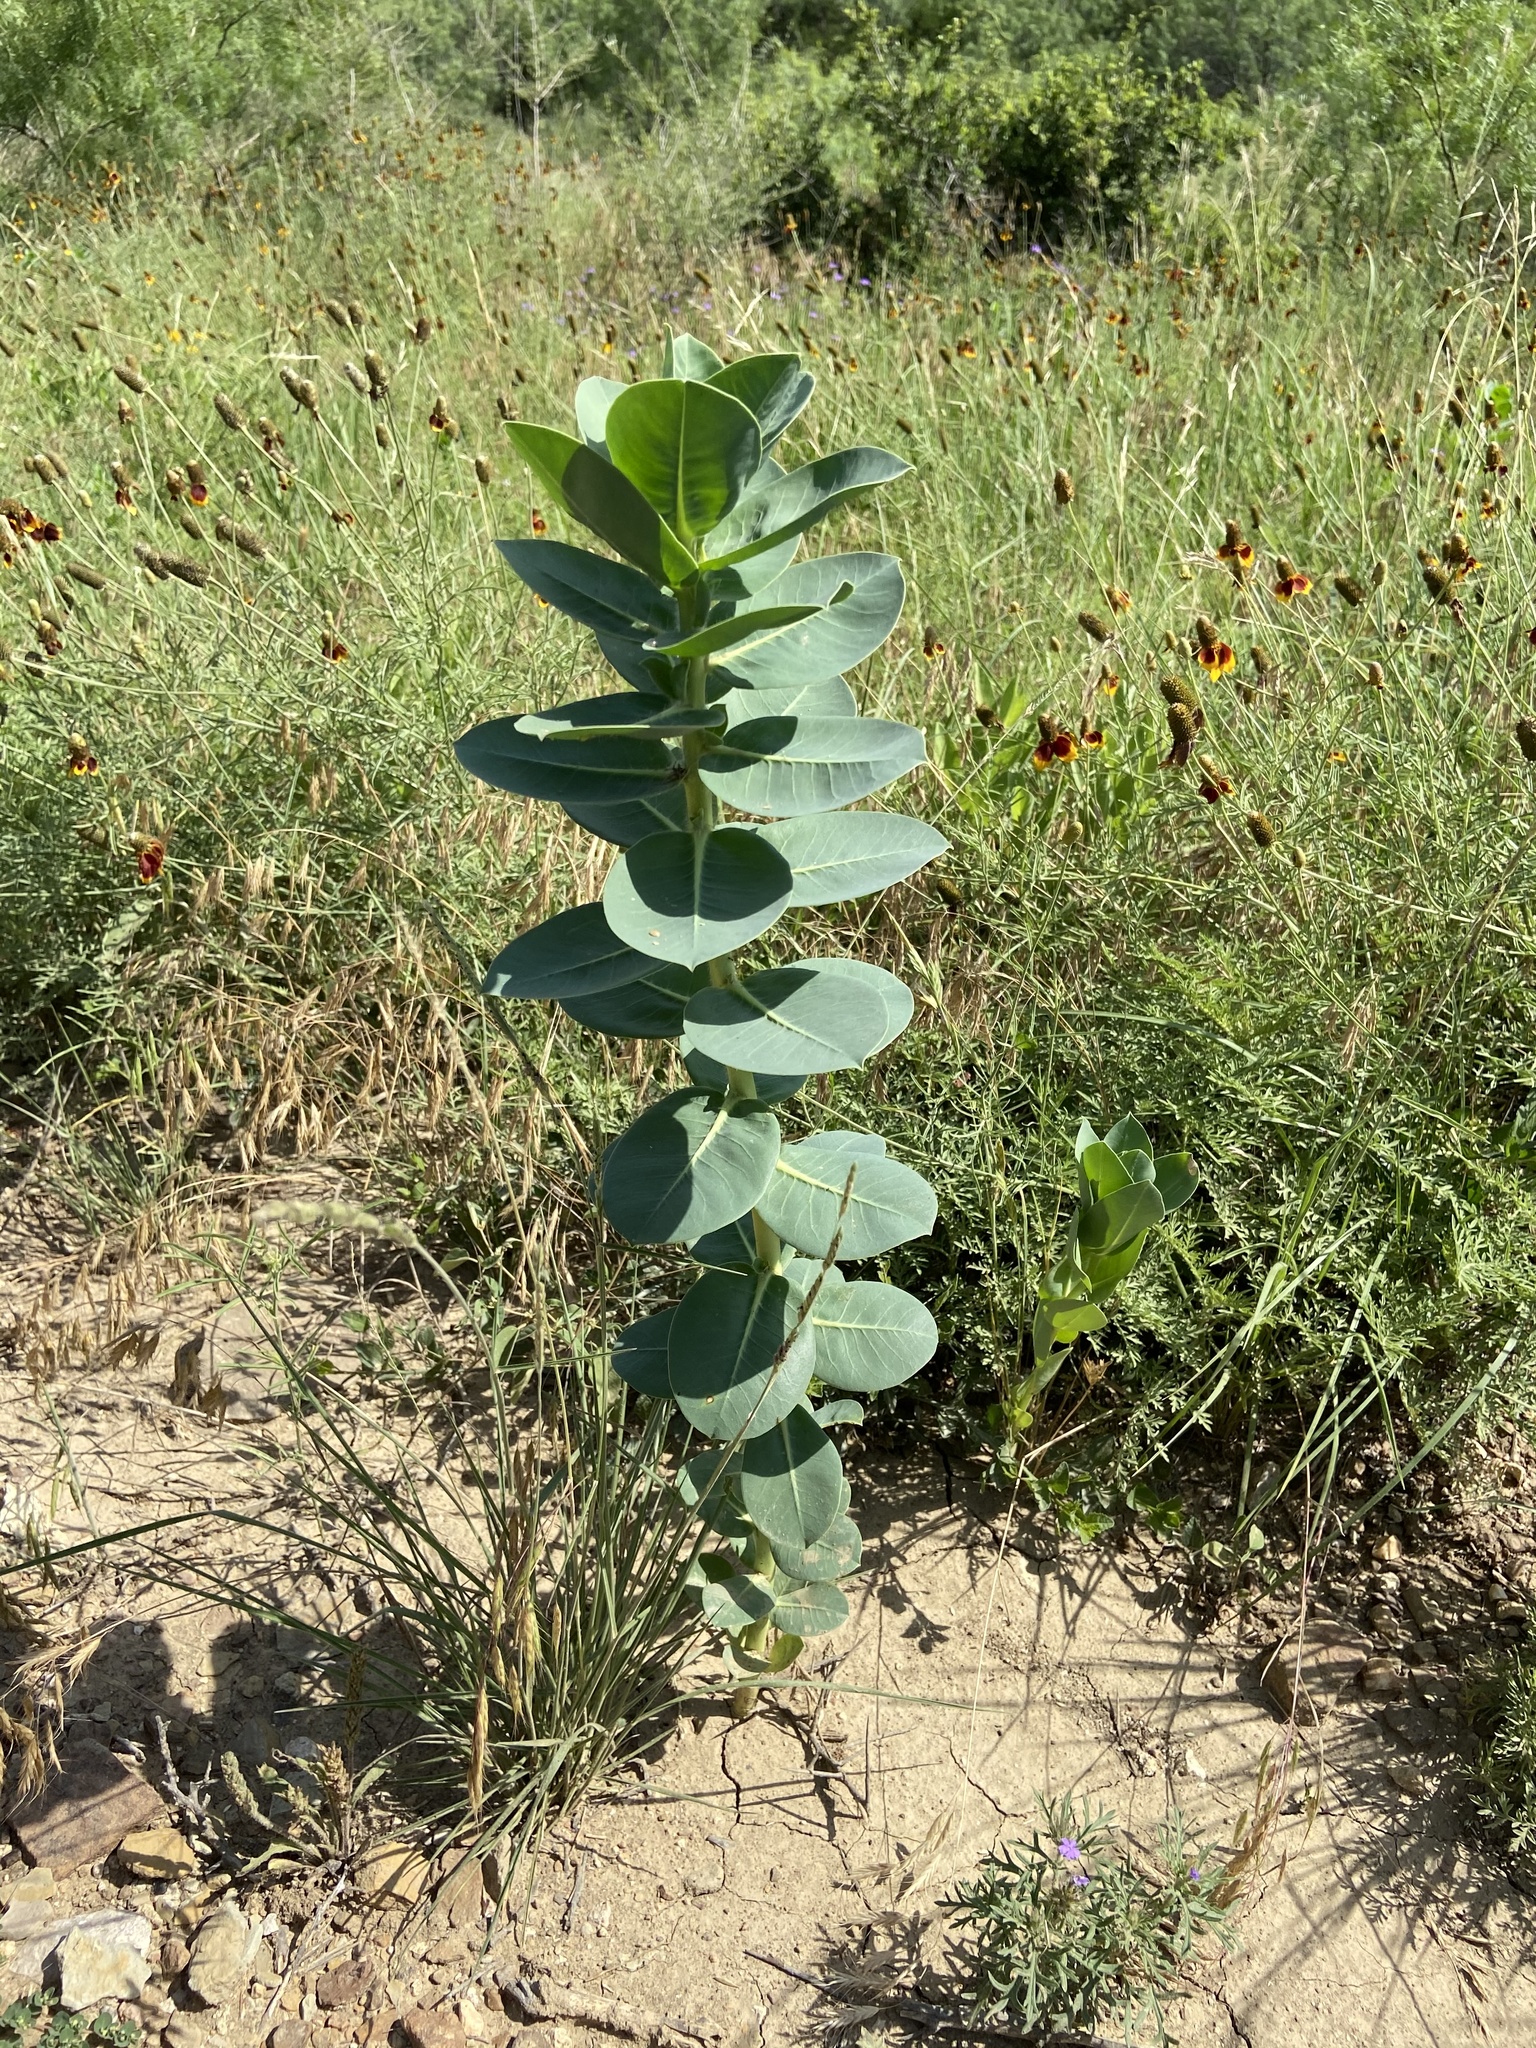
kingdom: Plantae
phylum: Tracheophyta
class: Magnoliopsida
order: Malpighiales
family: Euphorbiaceae
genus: Euphorbia
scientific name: Euphorbia marginata
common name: Ghostweed
